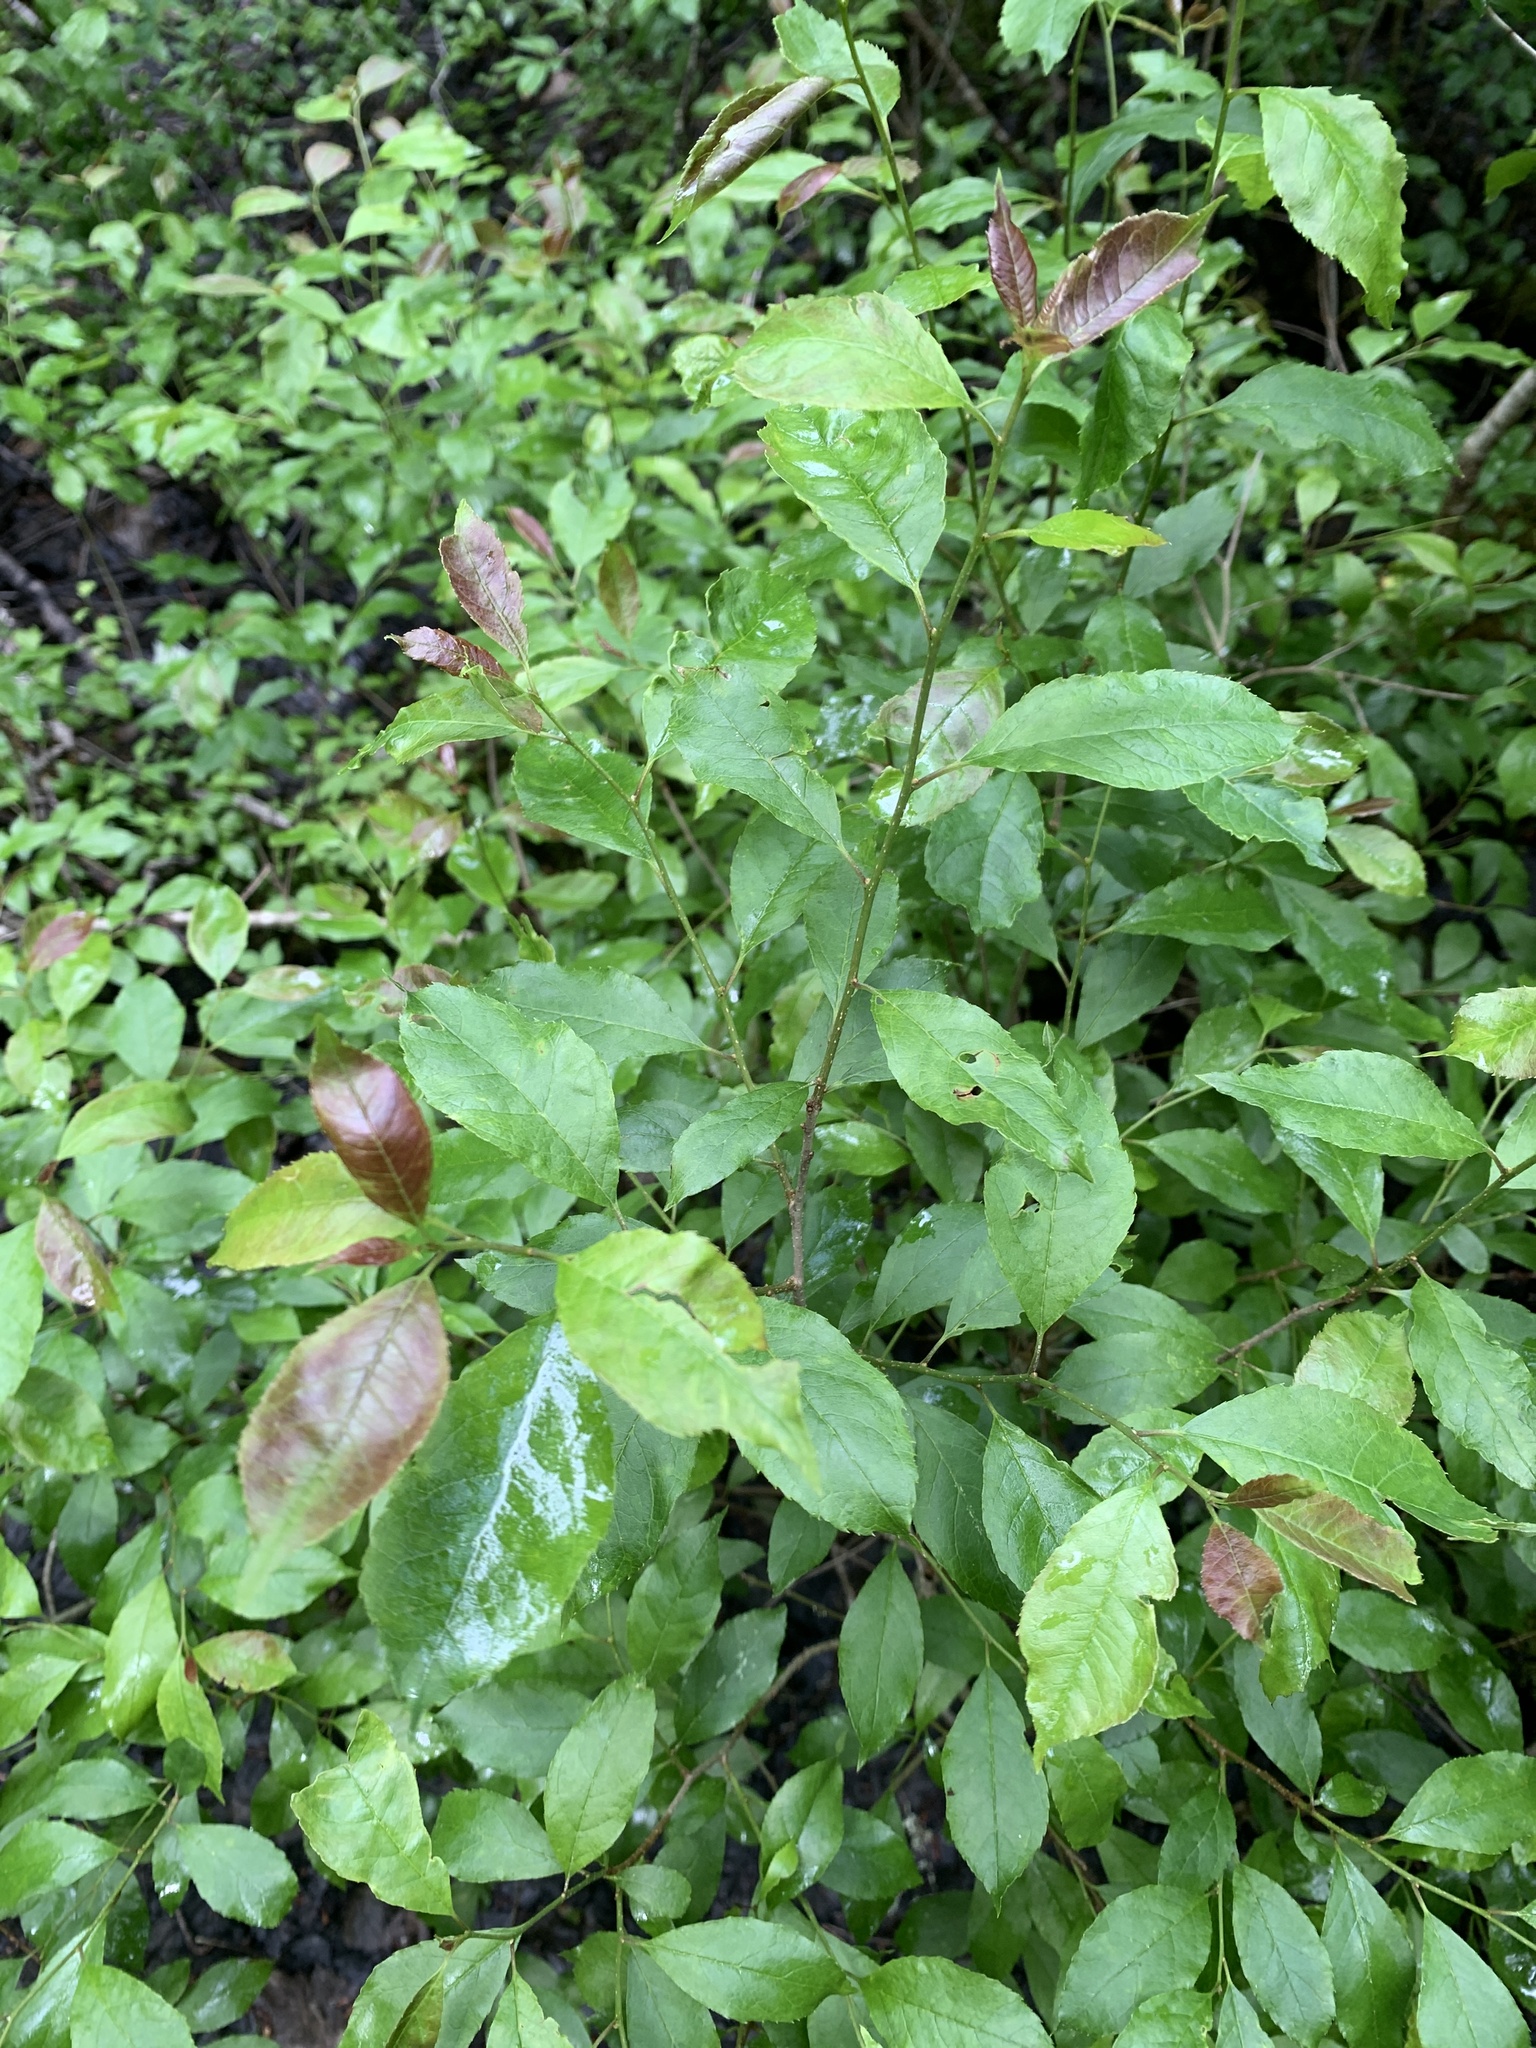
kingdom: Plantae
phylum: Tracheophyta
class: Magnoliopsida
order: Aquifoliales
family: Aquifoliaceae
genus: Ilex
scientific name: Ilex verticillata
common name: Virginia winterberry
